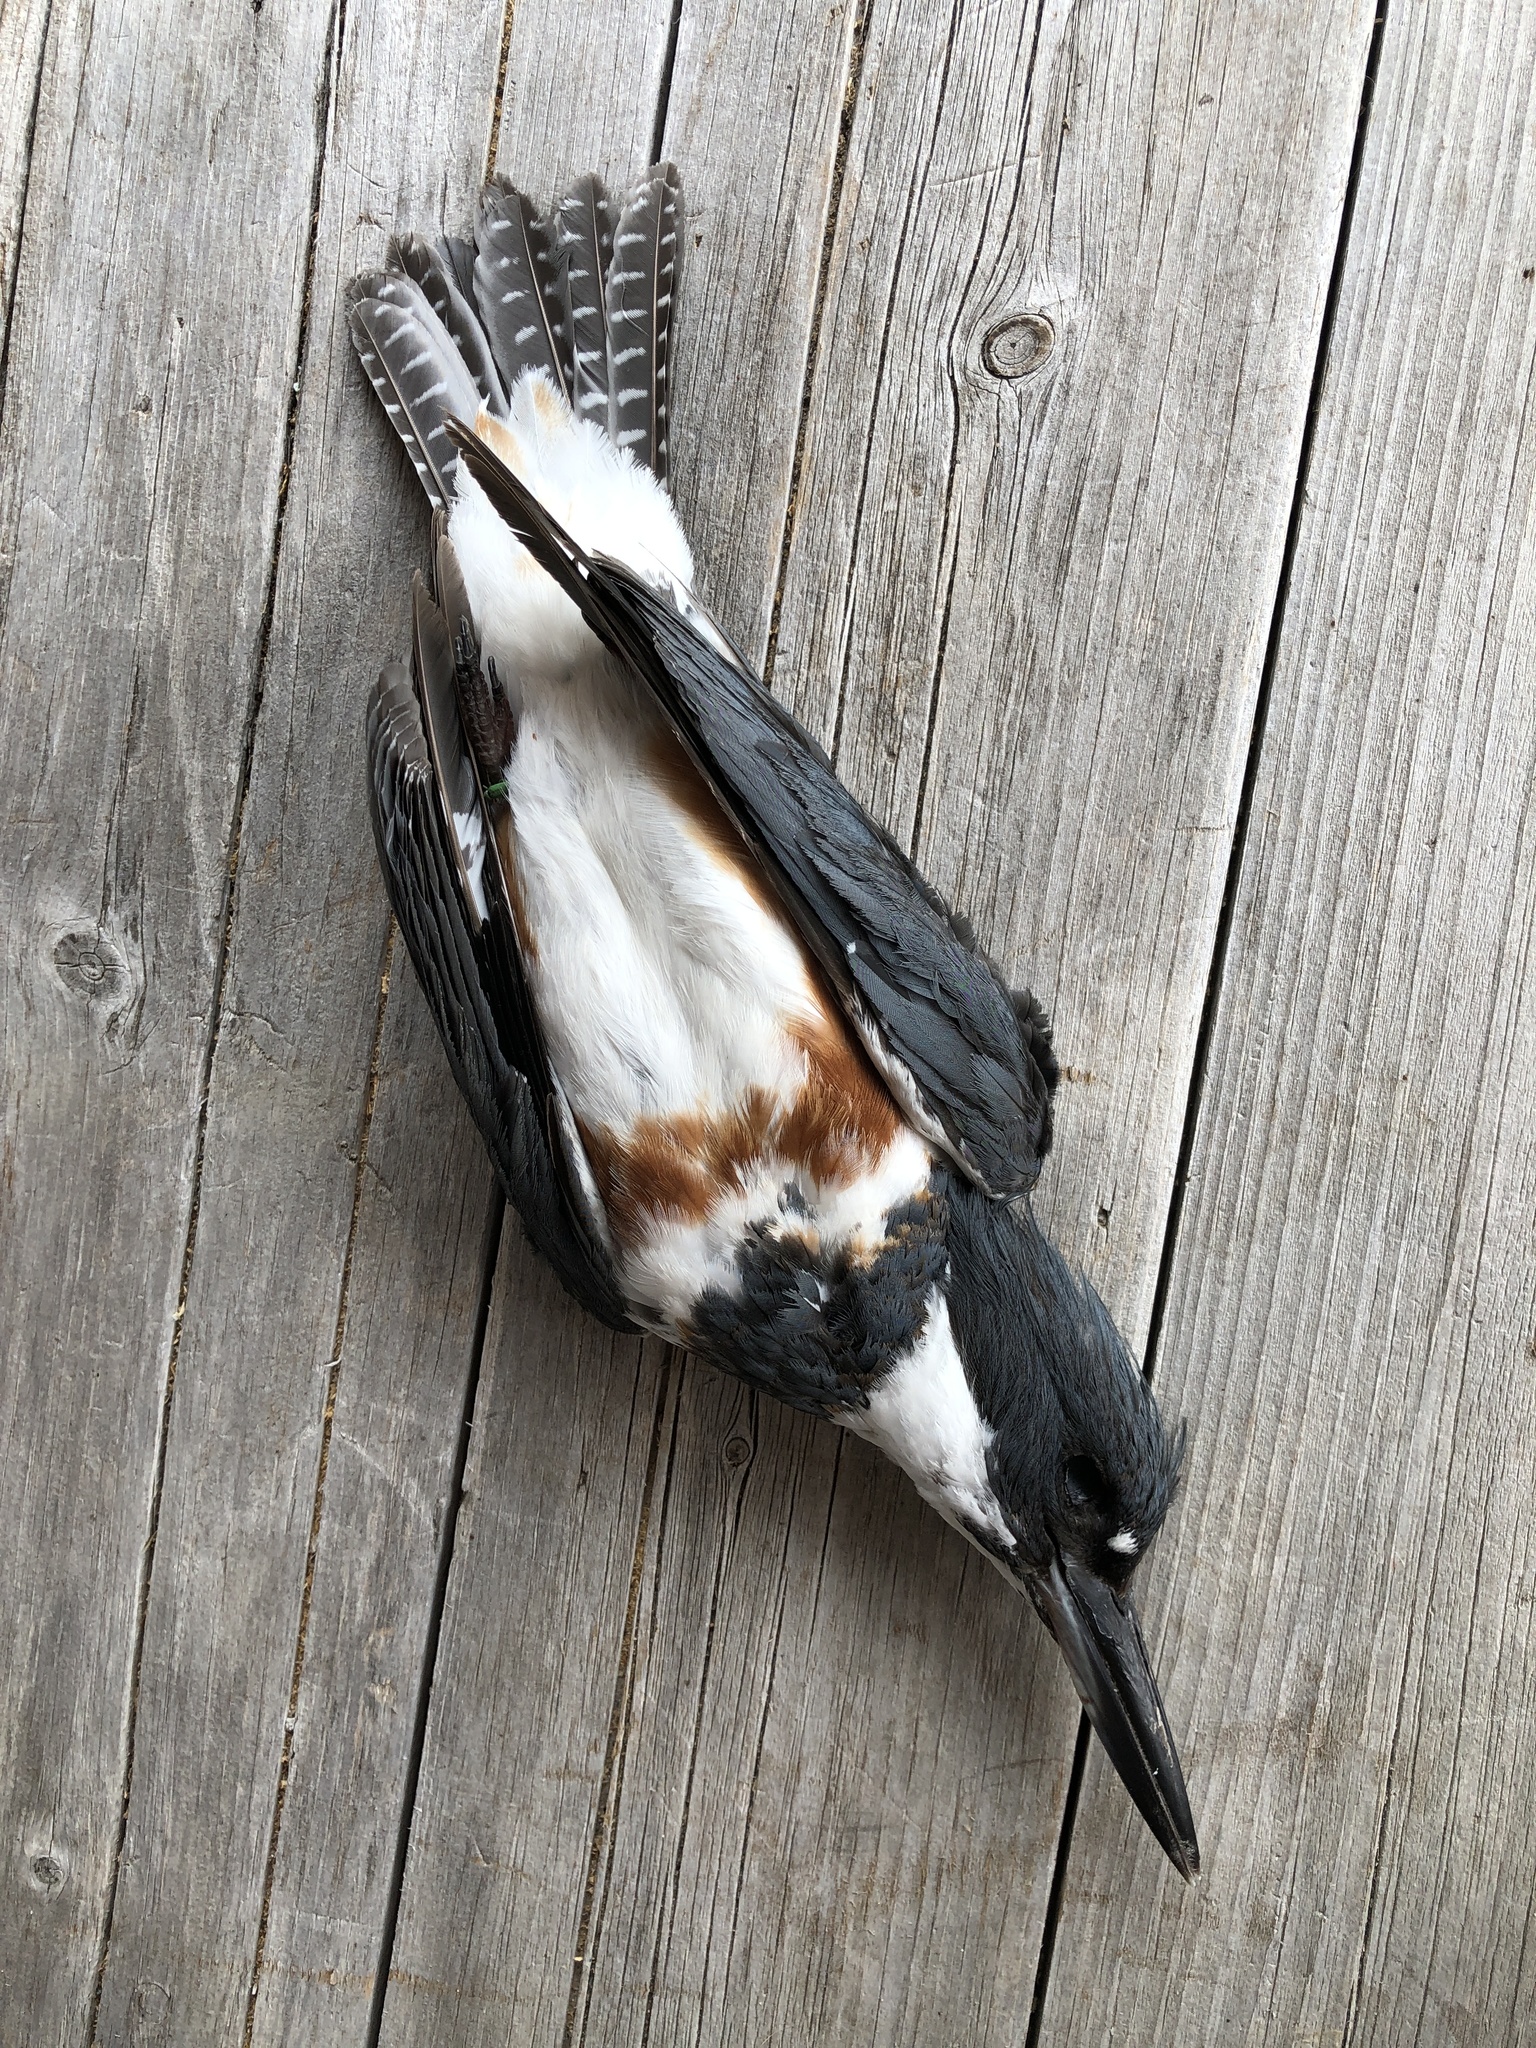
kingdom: Animalia
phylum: Chordata
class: Aves
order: Coraciiformes
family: Alcedinidae
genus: Megaceryle
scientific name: Megaceryle alcyon
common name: Belted kingfisher
